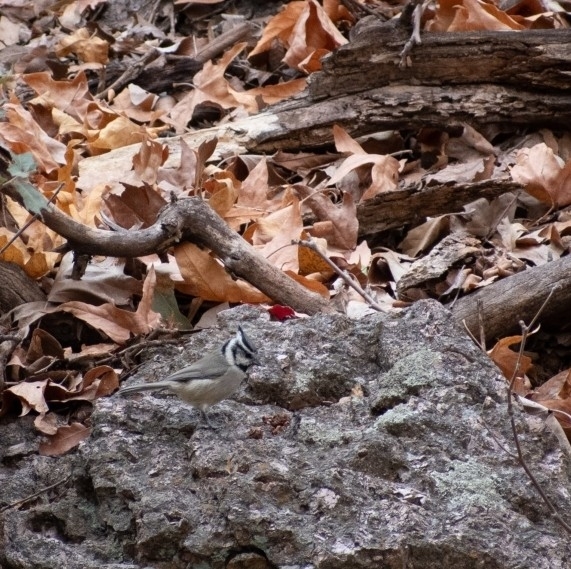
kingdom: Animalia
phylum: Chordata
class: Aves
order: Passeriformes
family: Paridae
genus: Baeolophus
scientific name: Baeolophus wollweberi
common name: Bridled titmouse
